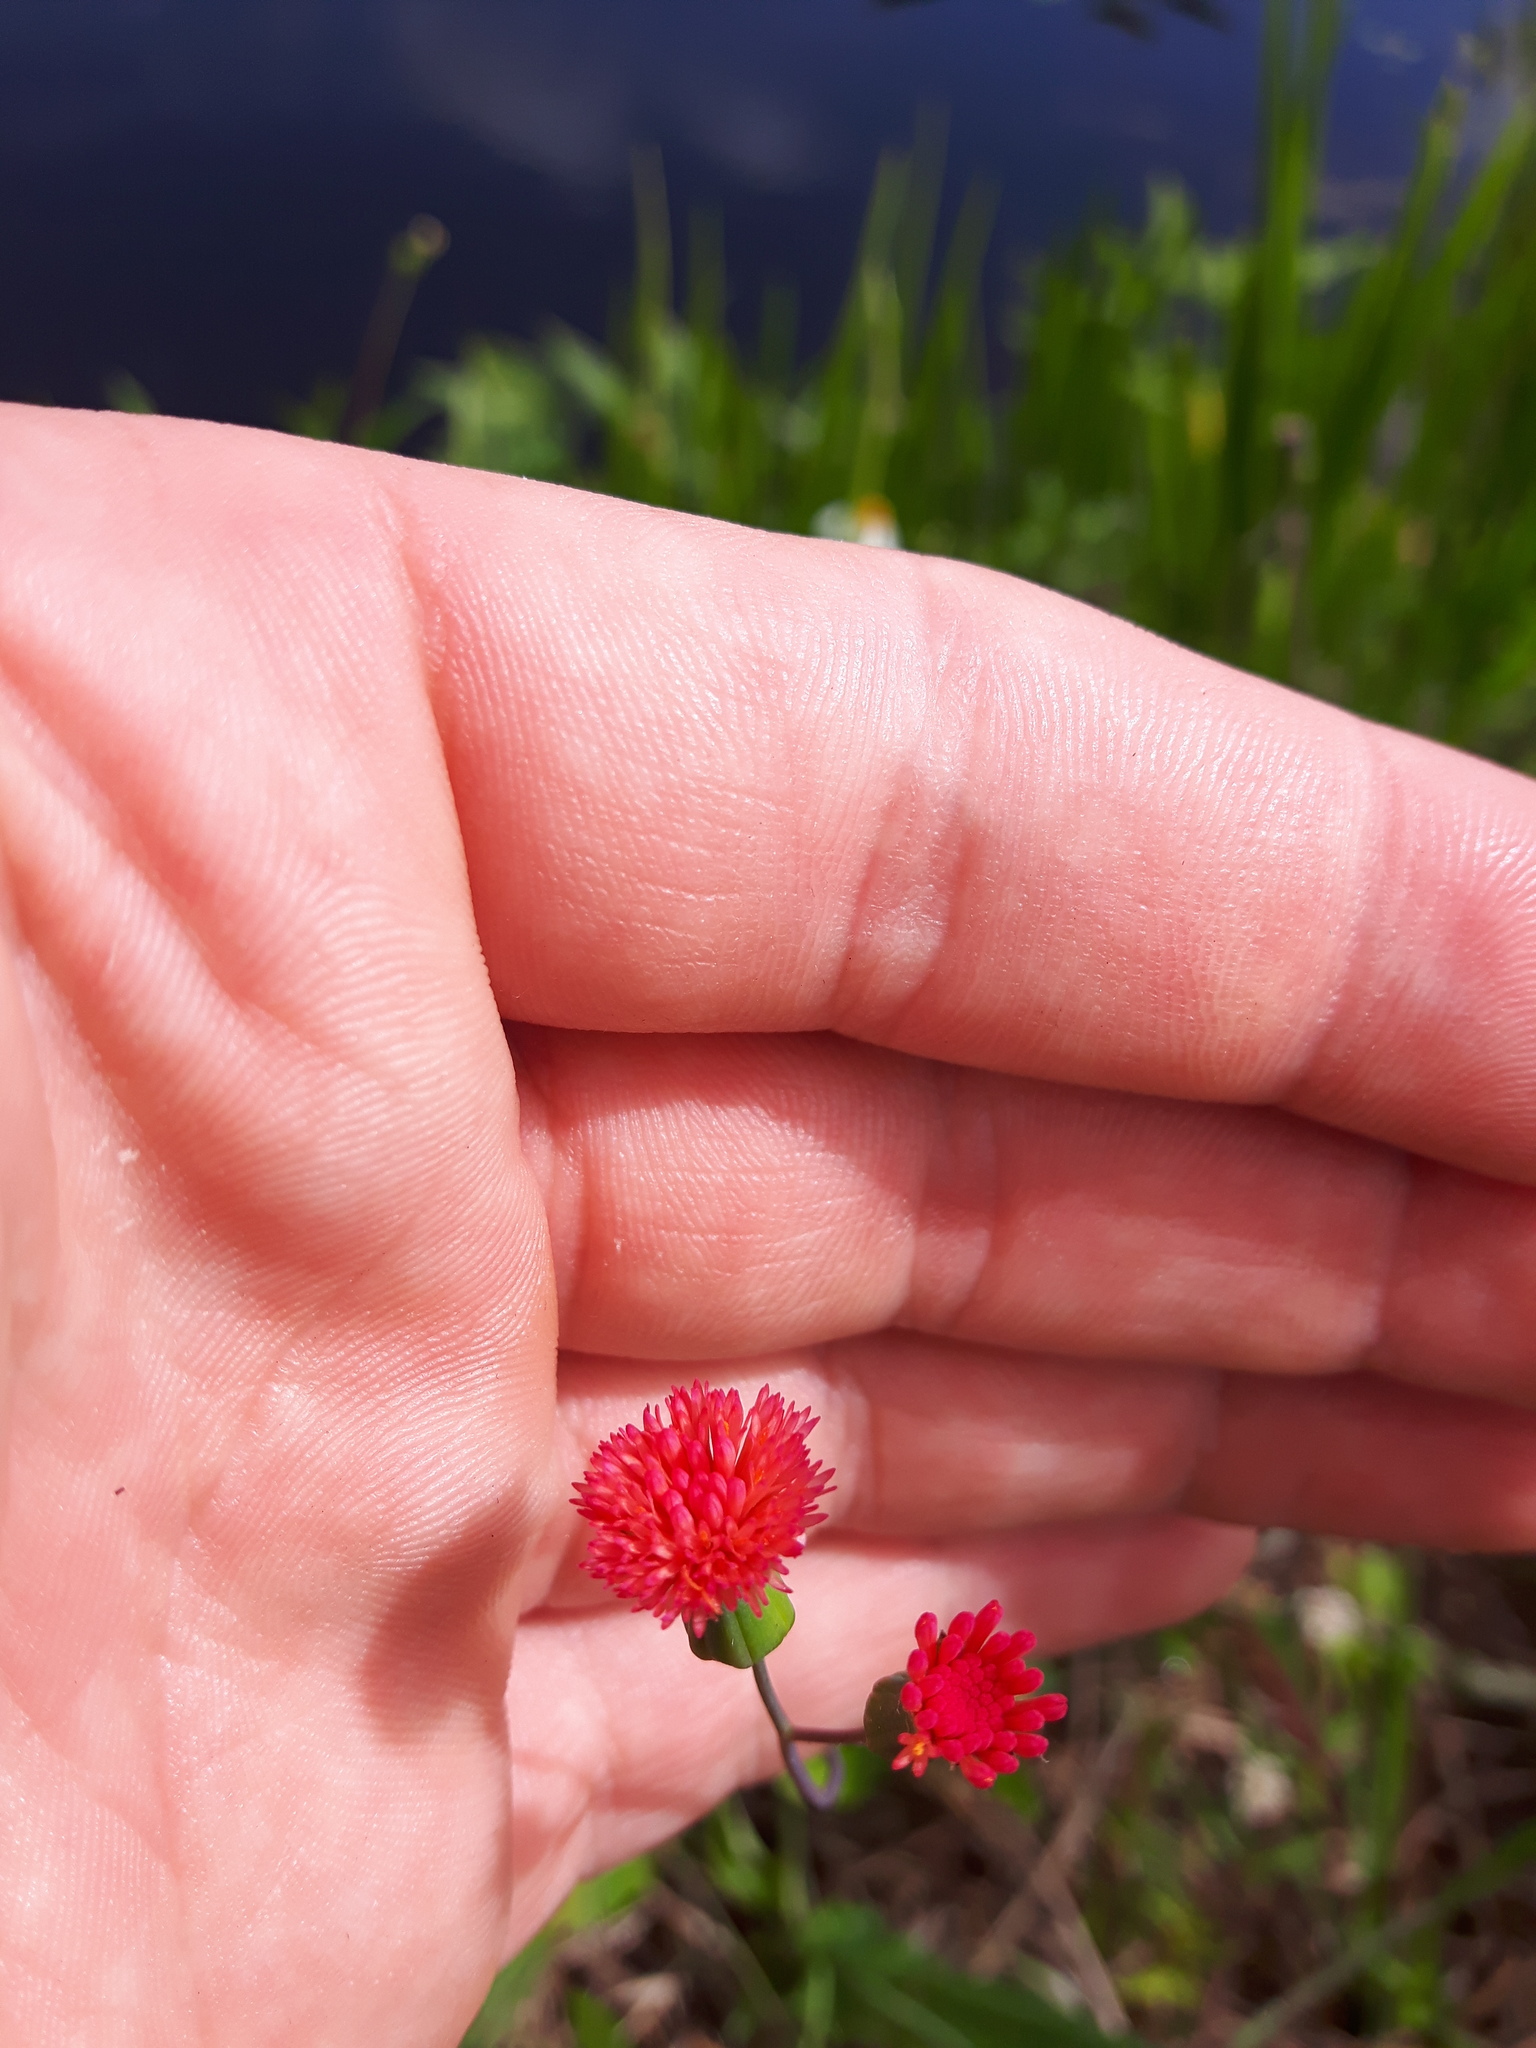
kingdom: Plantae
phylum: Tracheophyta
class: Magnoliopsida
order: Asterales
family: Asteraceae
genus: Emilia
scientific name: Emilia fosbergii
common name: Florida tasselflower
